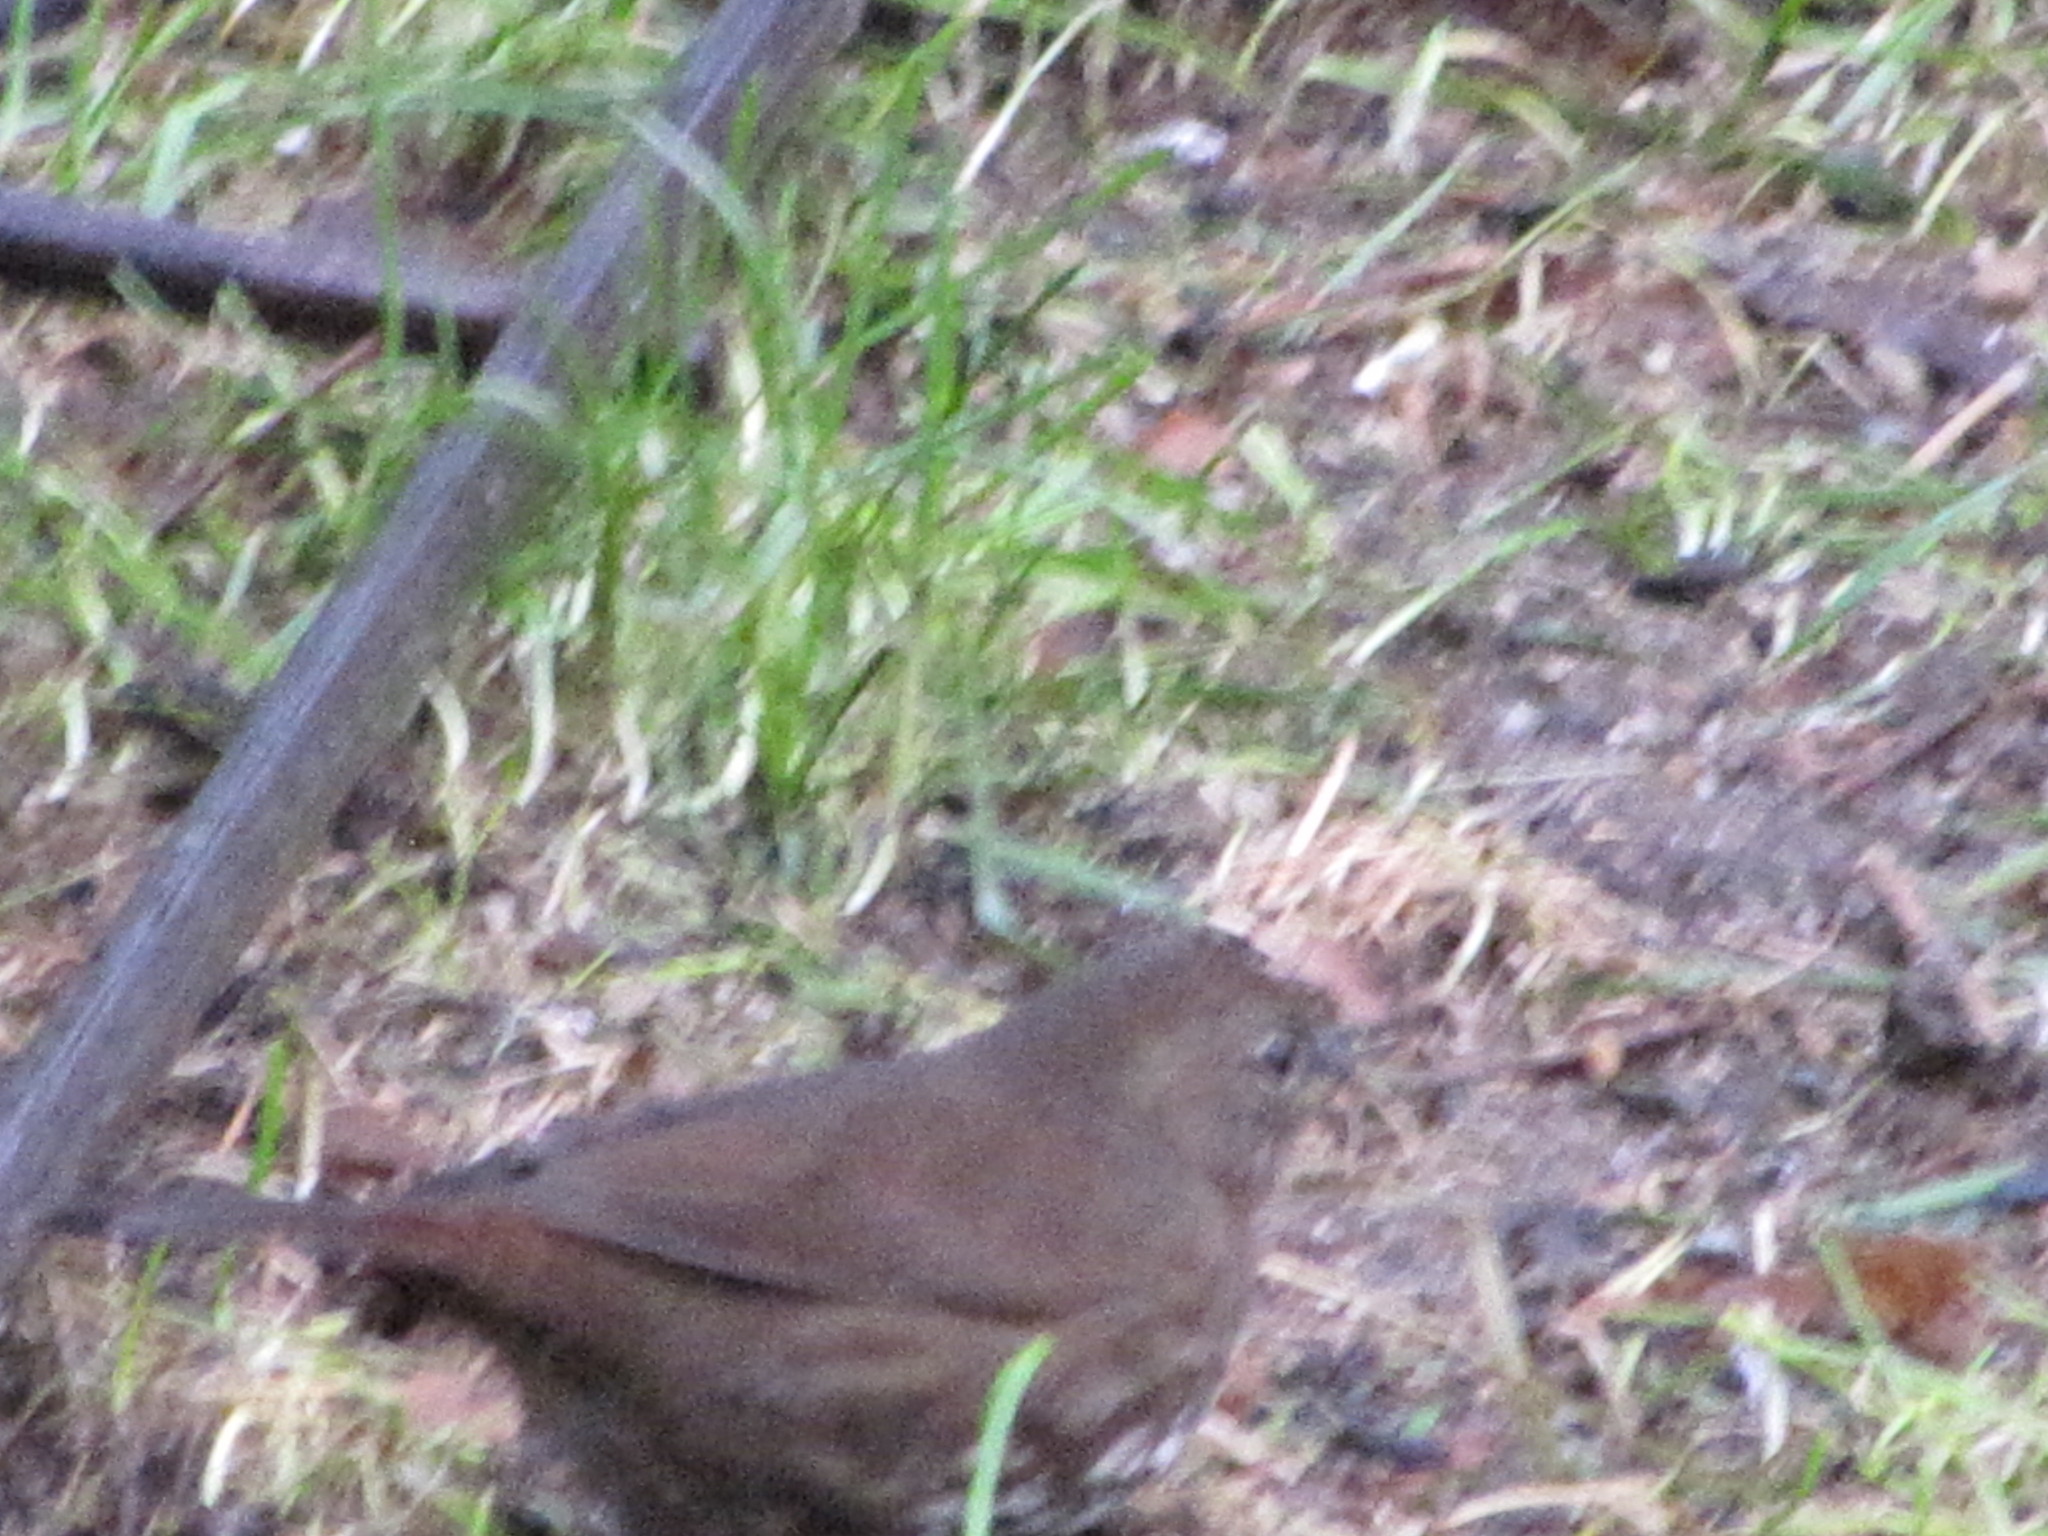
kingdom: Animalia
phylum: Chordata
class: Aves
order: Passeriformes
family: Passerellidae
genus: Passerella
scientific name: Passerella iliaca
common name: Fox sparrow
